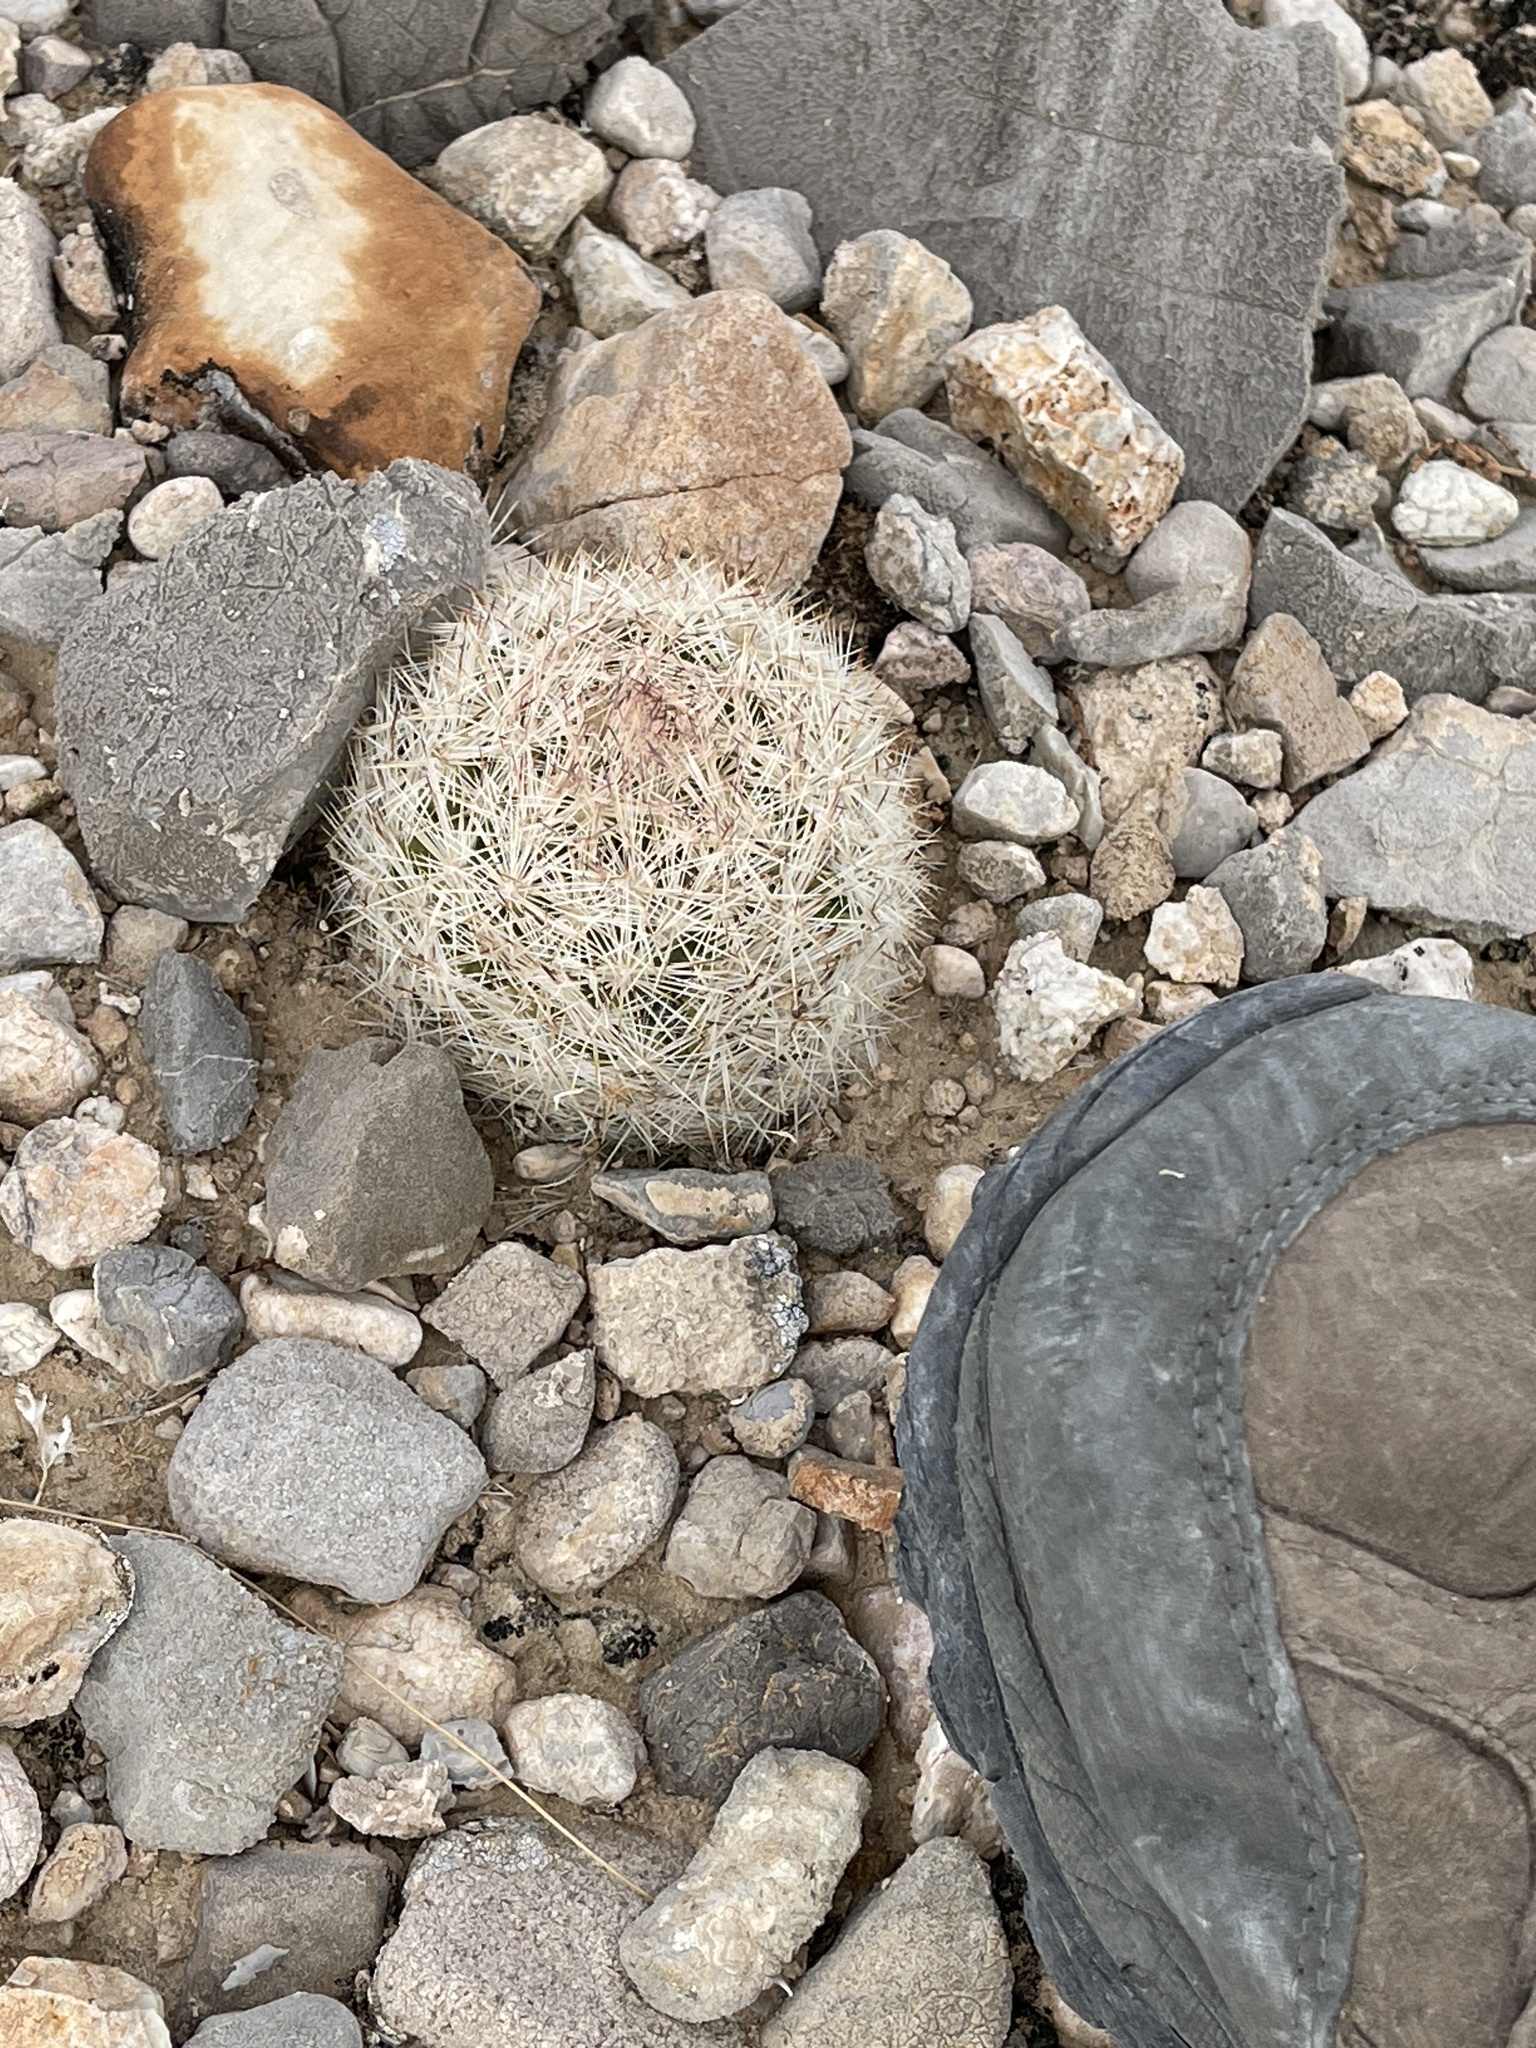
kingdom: Plantae
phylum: Tracheophyta
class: Magnoliopsida
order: Caryophyllales
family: Cactaceae
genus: Pelecyphora
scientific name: Pelecyphora dasyacantha
